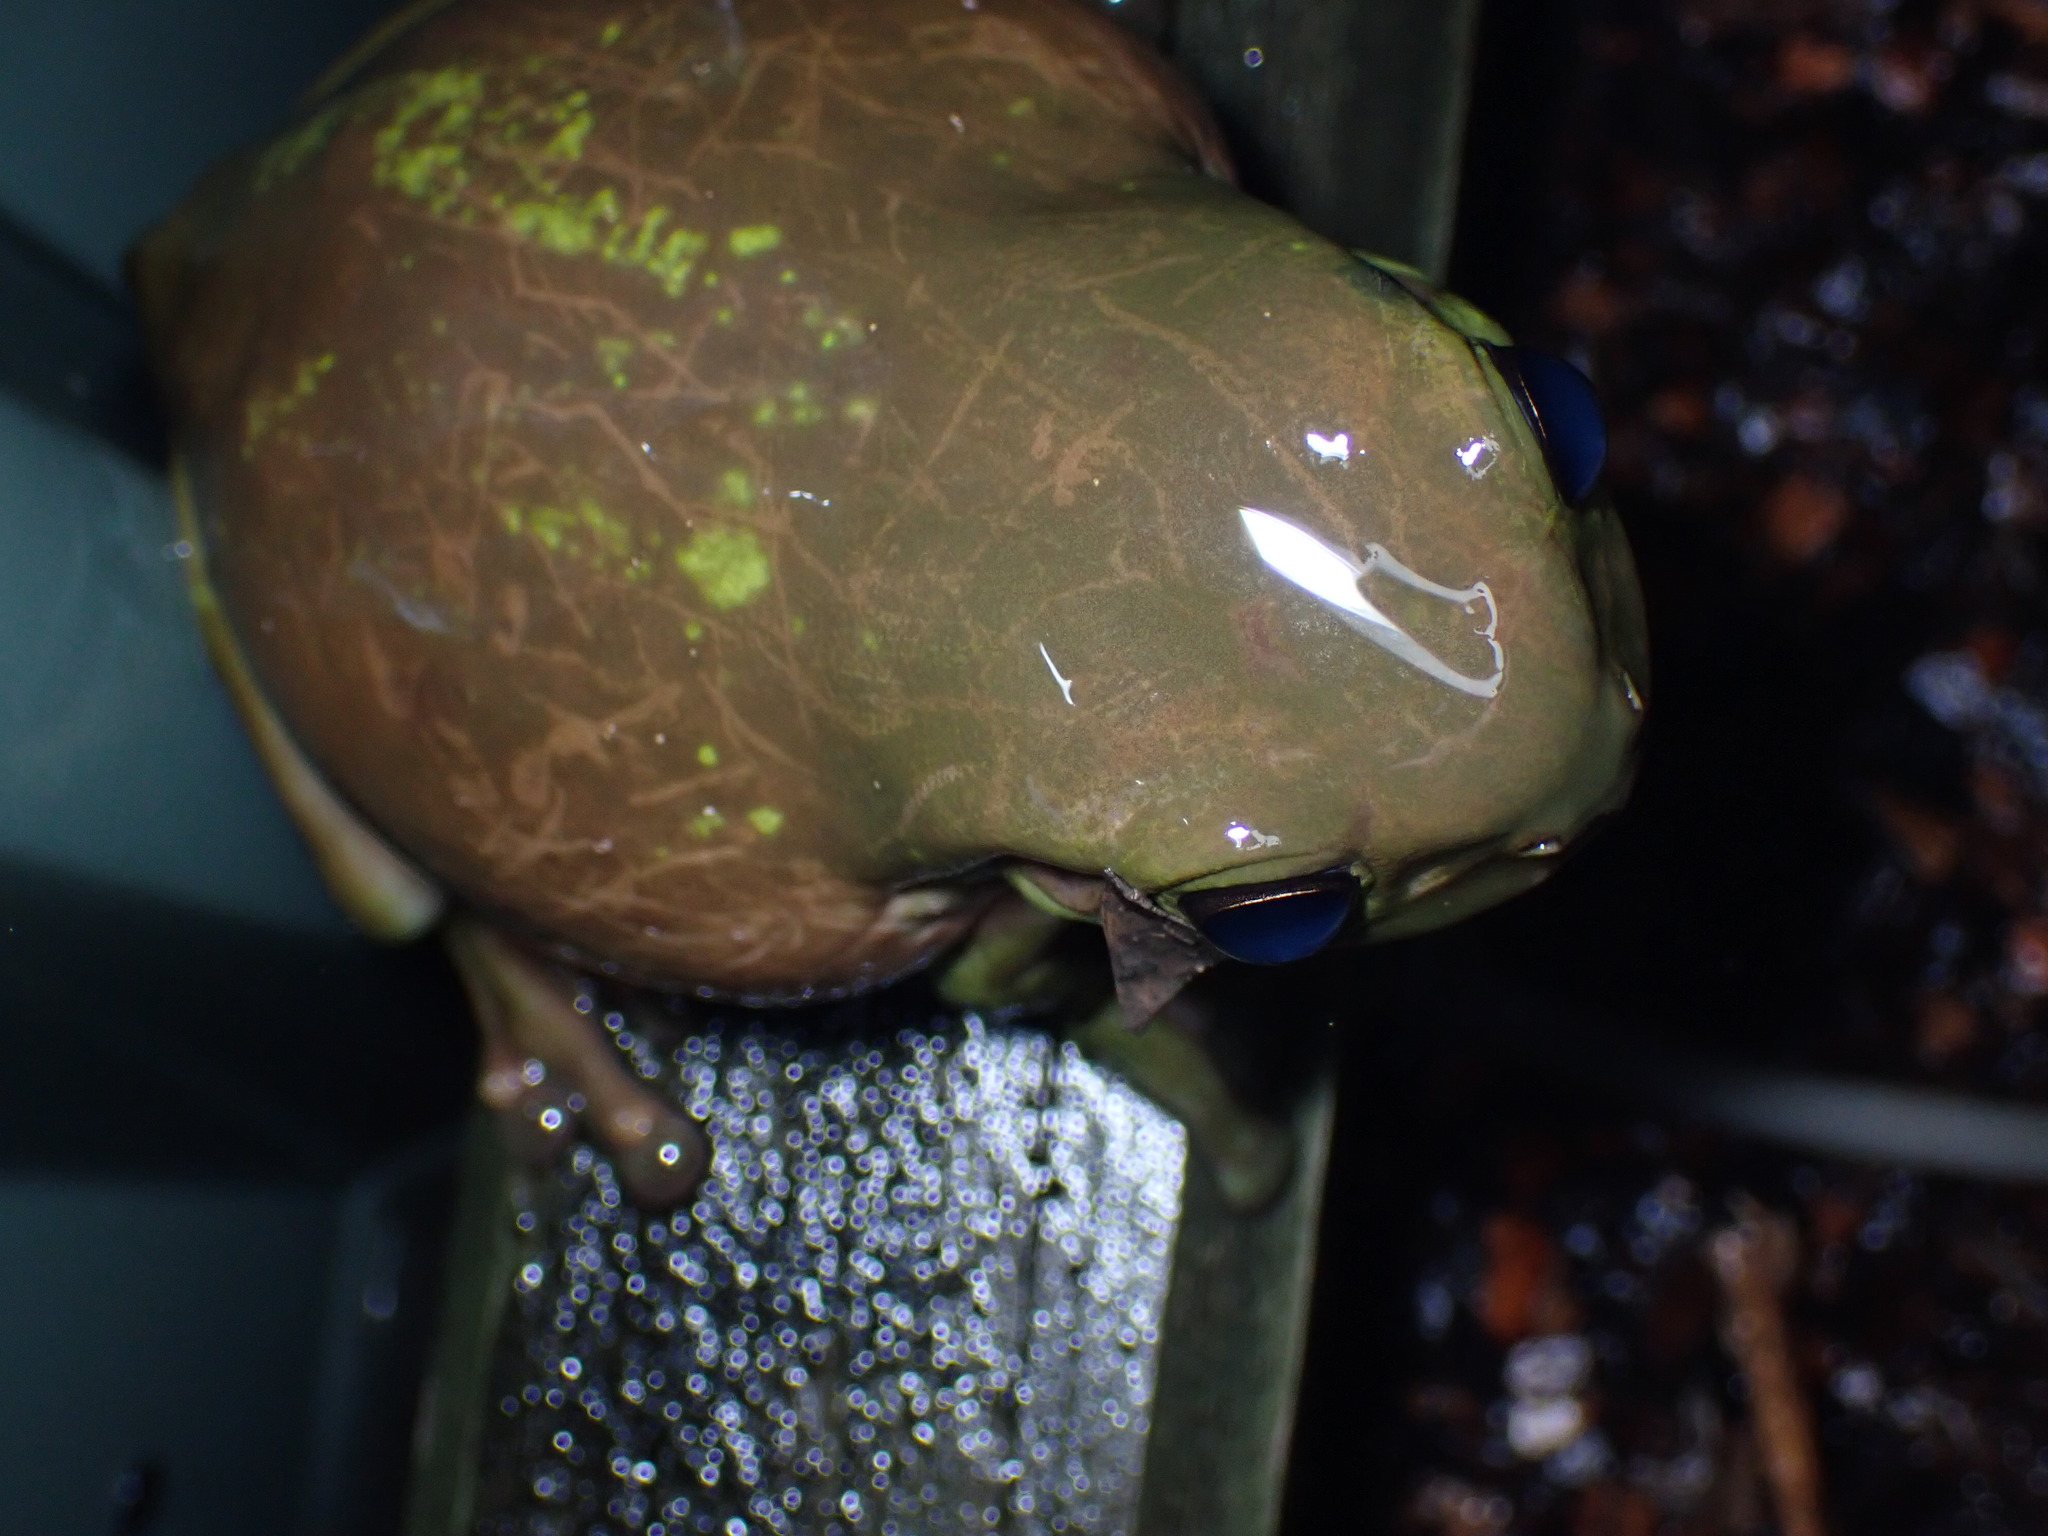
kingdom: Animalia
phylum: Chordata
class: Amphibia
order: Anura
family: Pelodryadidae
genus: Ranoidea
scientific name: Ranoidea caerulea
